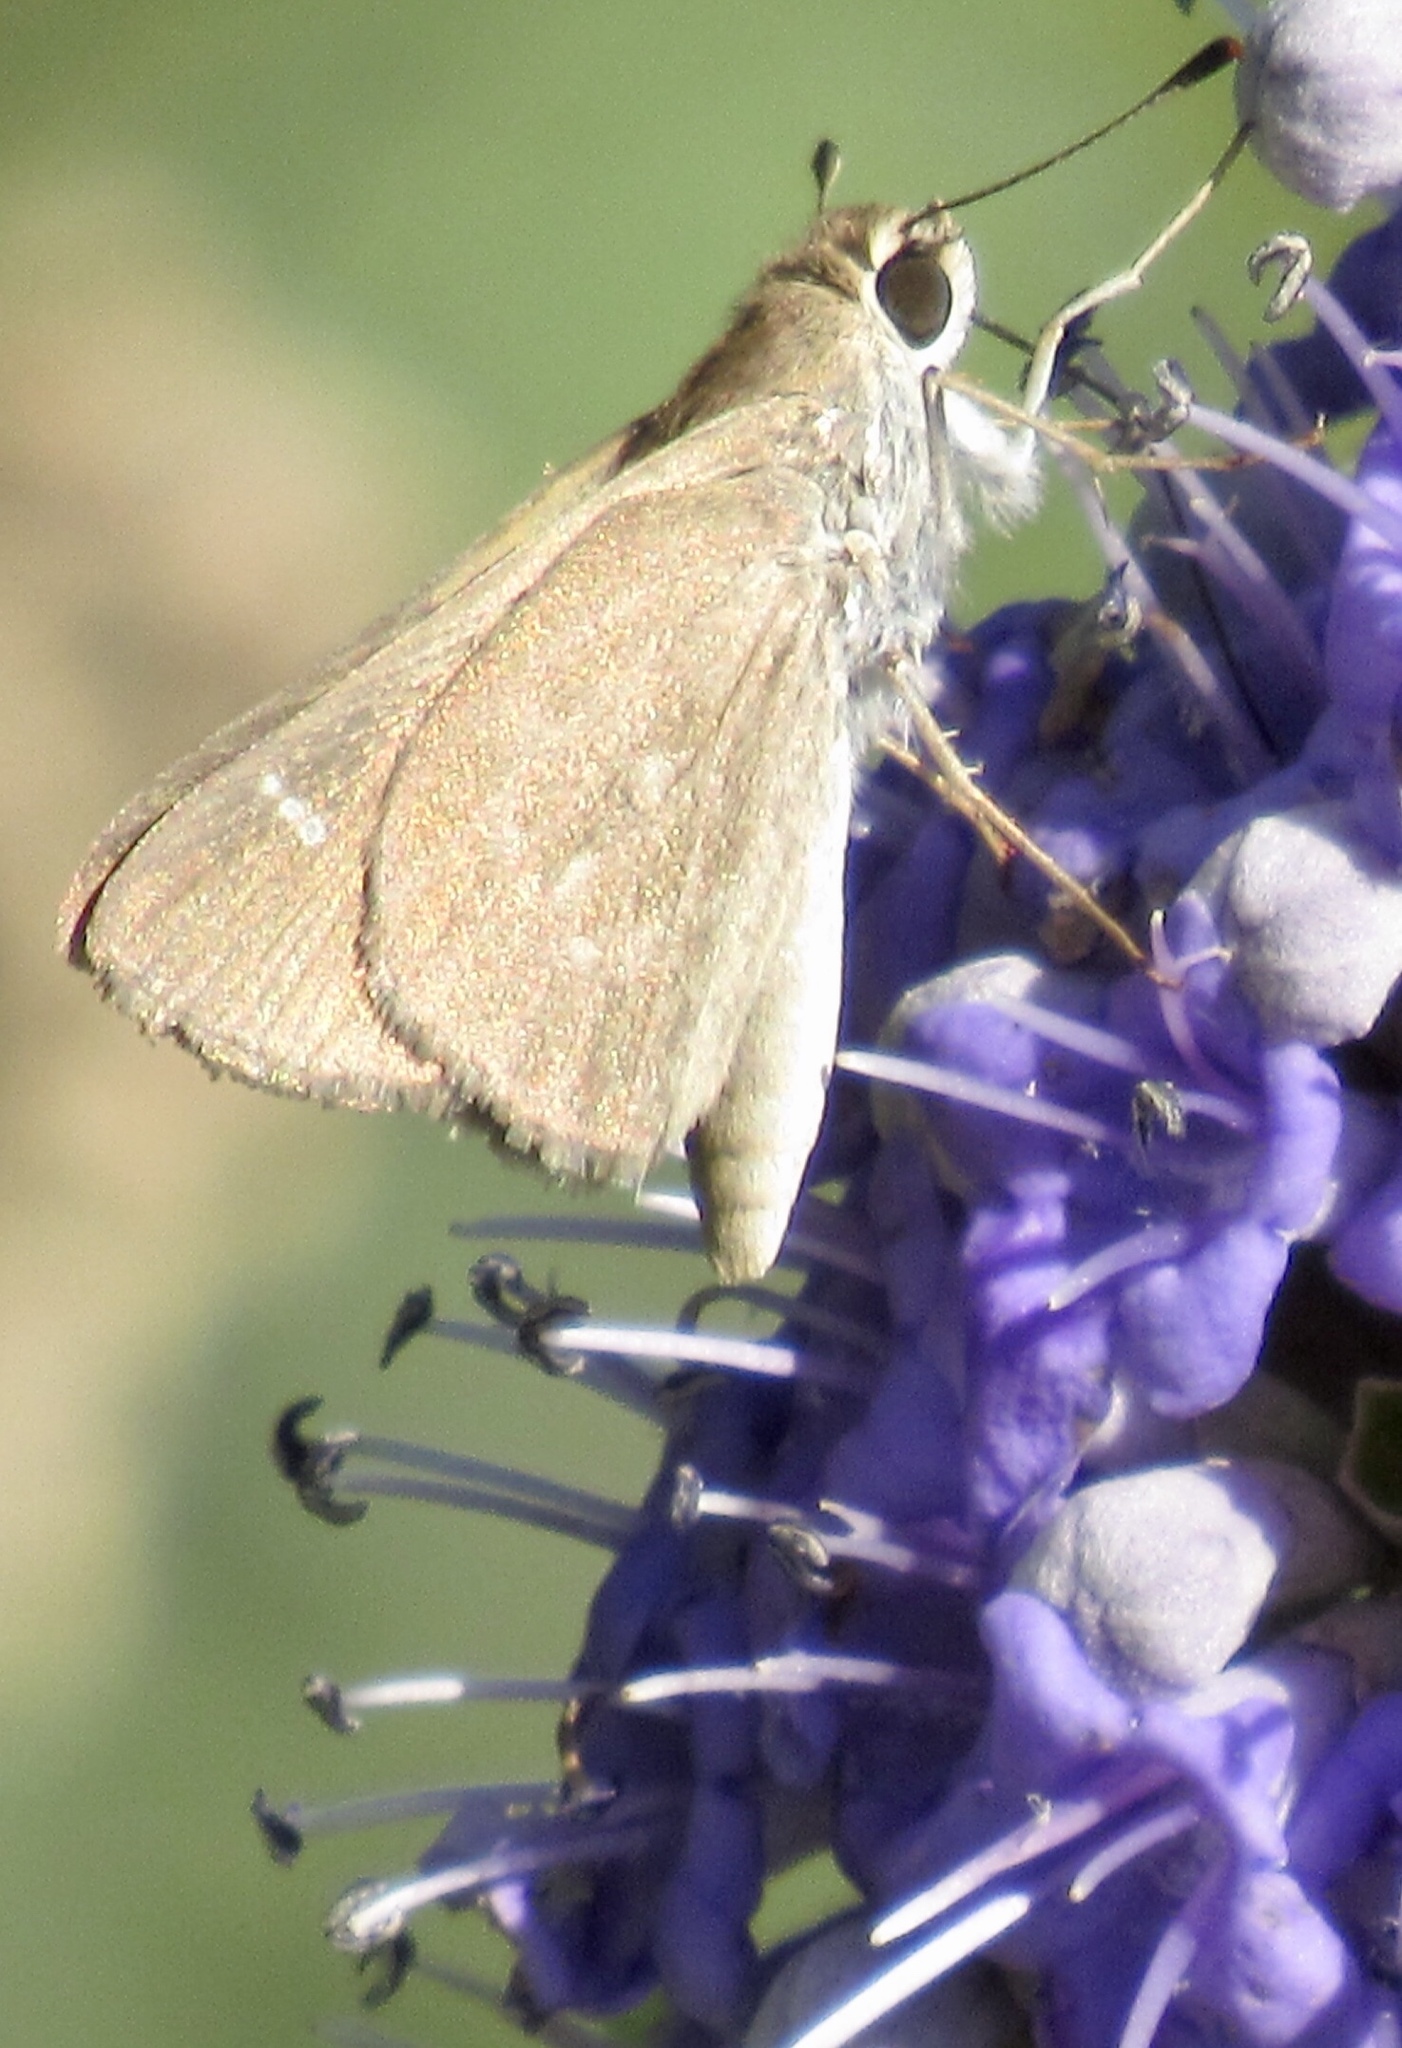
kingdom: Animalia
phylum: Arthropoda
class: Insecta
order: Lepidoptera
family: Hesperiidae
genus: Lerodea
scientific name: Lerodea eufala
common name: Eufala skipper
